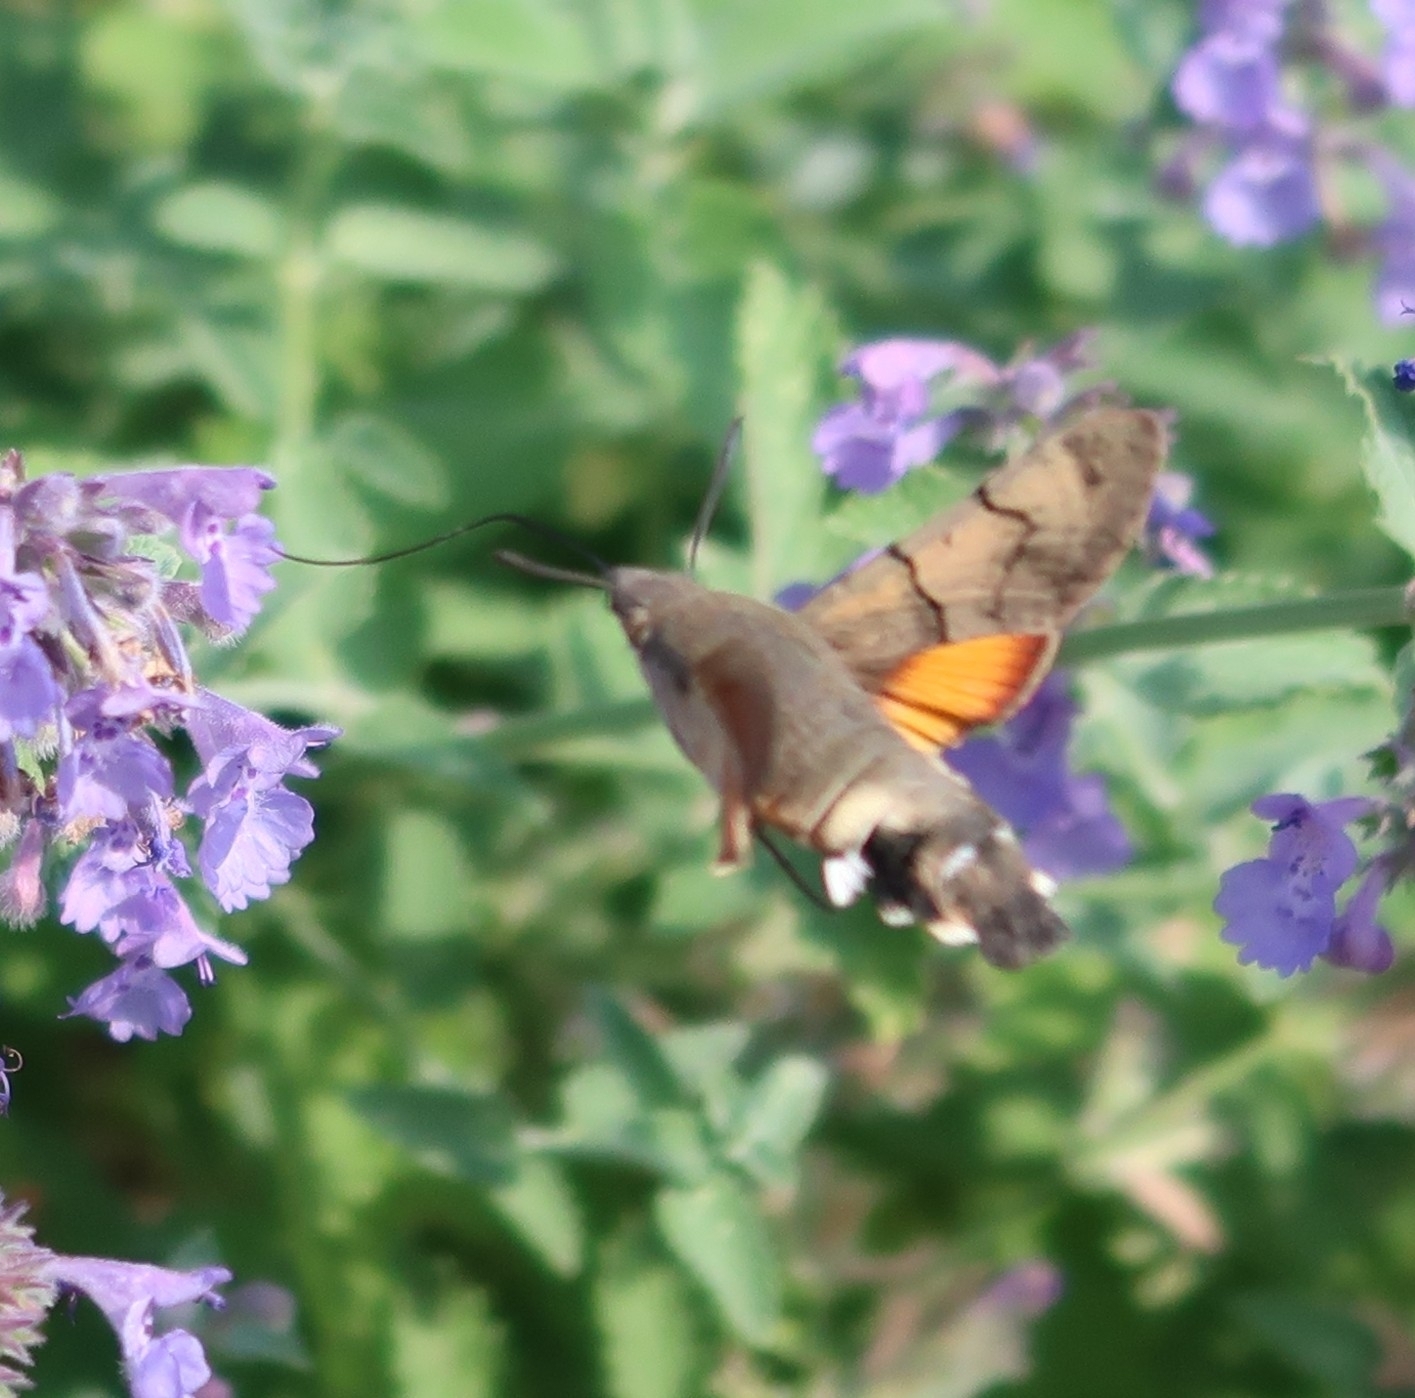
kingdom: Animalia
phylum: Arthropoda
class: Insecta
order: Lepidoptera
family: Sphingidae
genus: Macroglossum
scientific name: Macroglossum stellatarum
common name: Humming-bird hawk-moth
